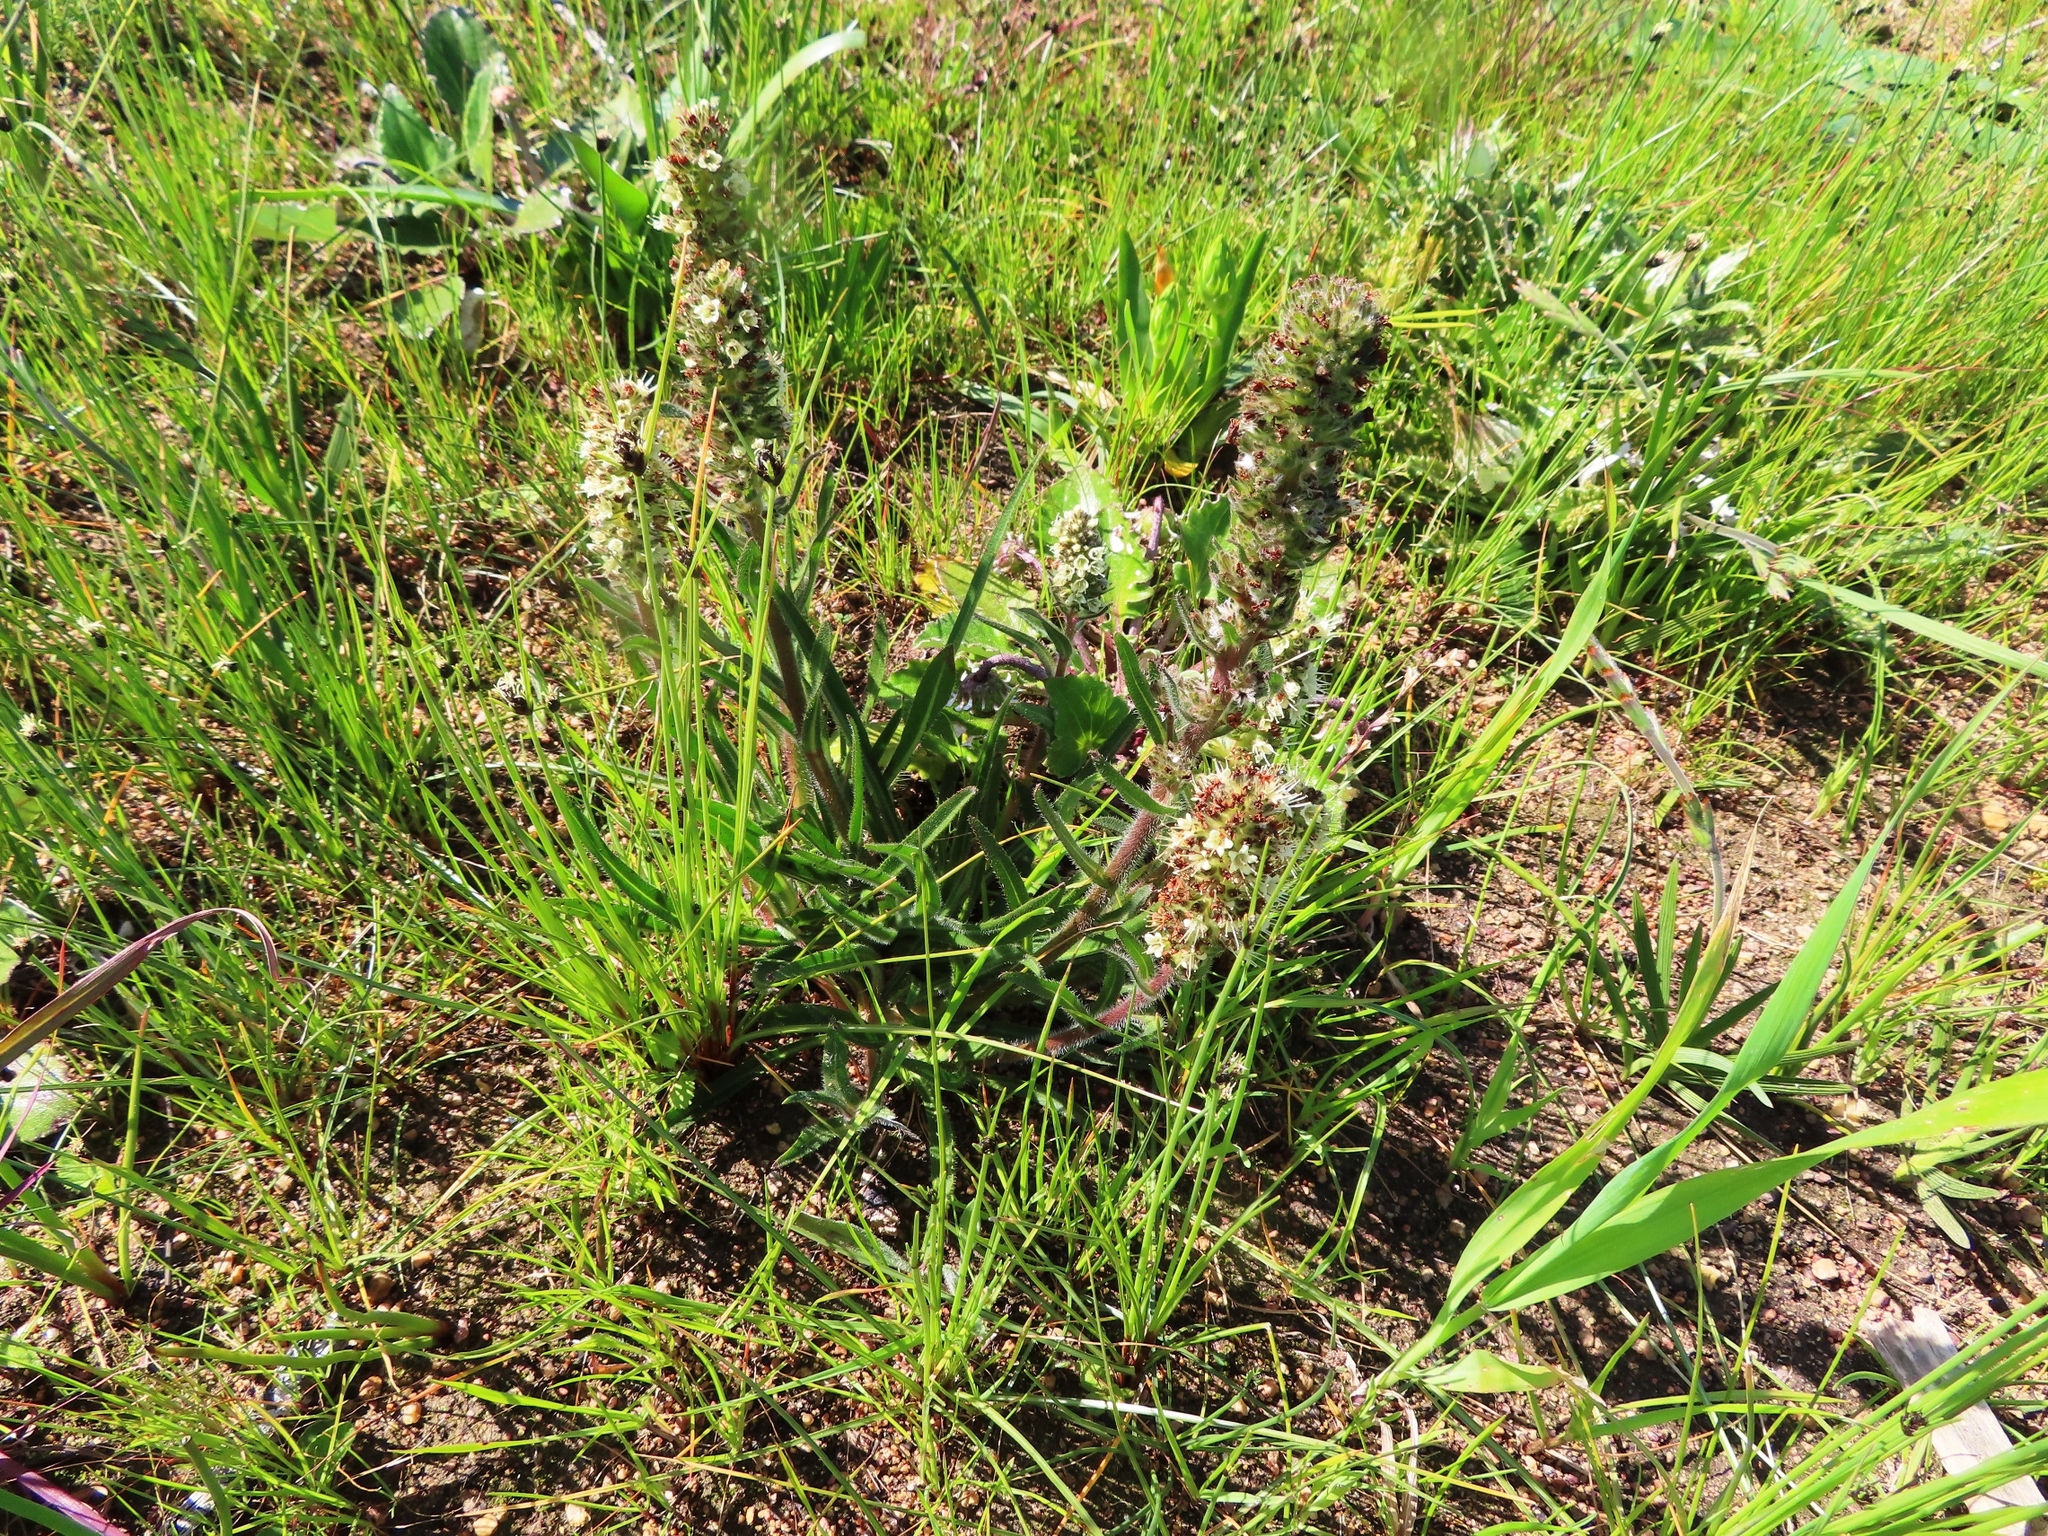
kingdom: Plantae
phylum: Tracheophyta
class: Magnoliopsida
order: Boraginales
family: Boraginaceae
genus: Lobostemon
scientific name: Lobostemon splendens
